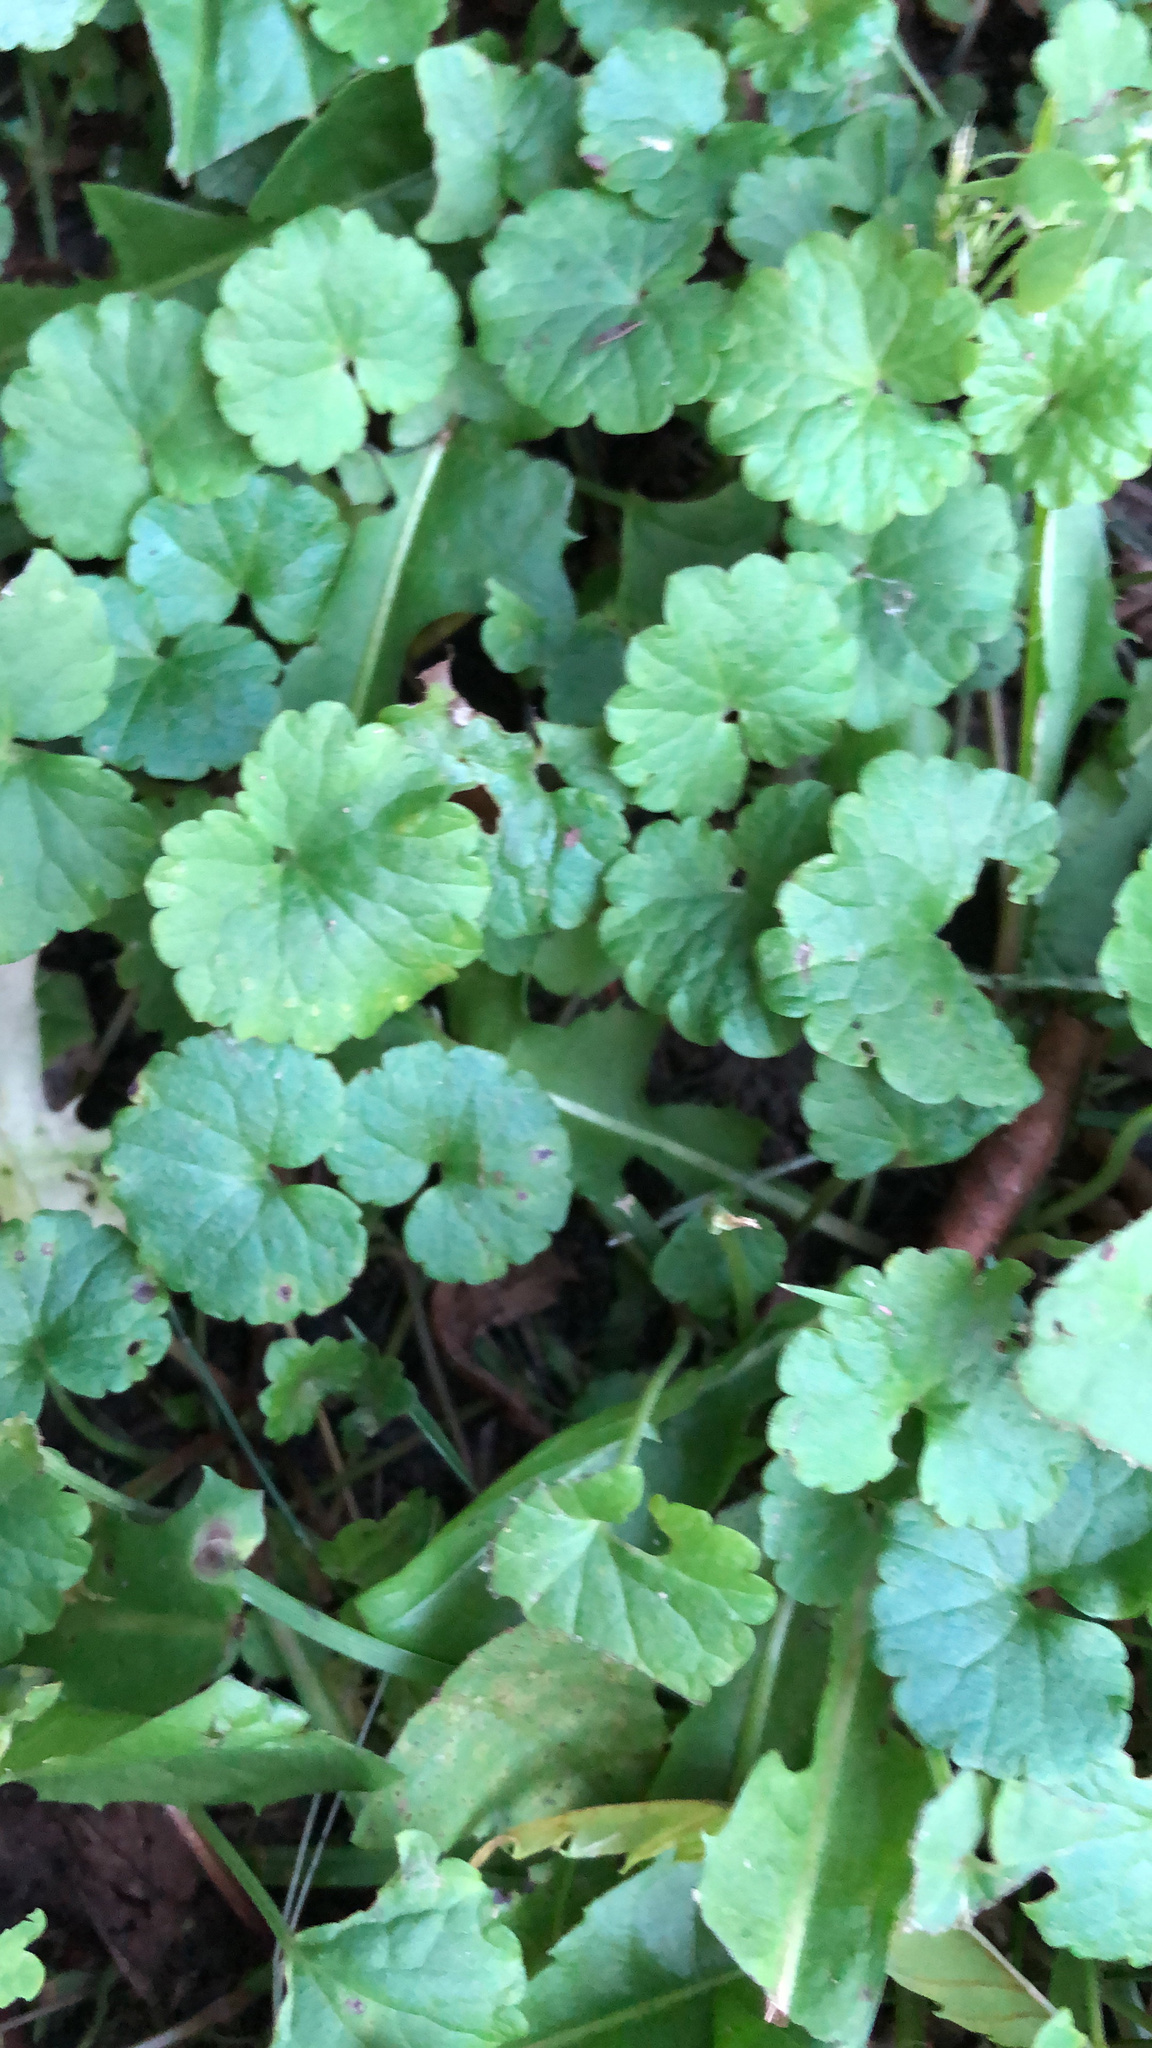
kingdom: Plantae
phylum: Tracheophyta
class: Magnoliopsida
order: Lamiales
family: Lamiaceae
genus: Glechoma
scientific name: Glechoma hederacea
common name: Ground ivy
